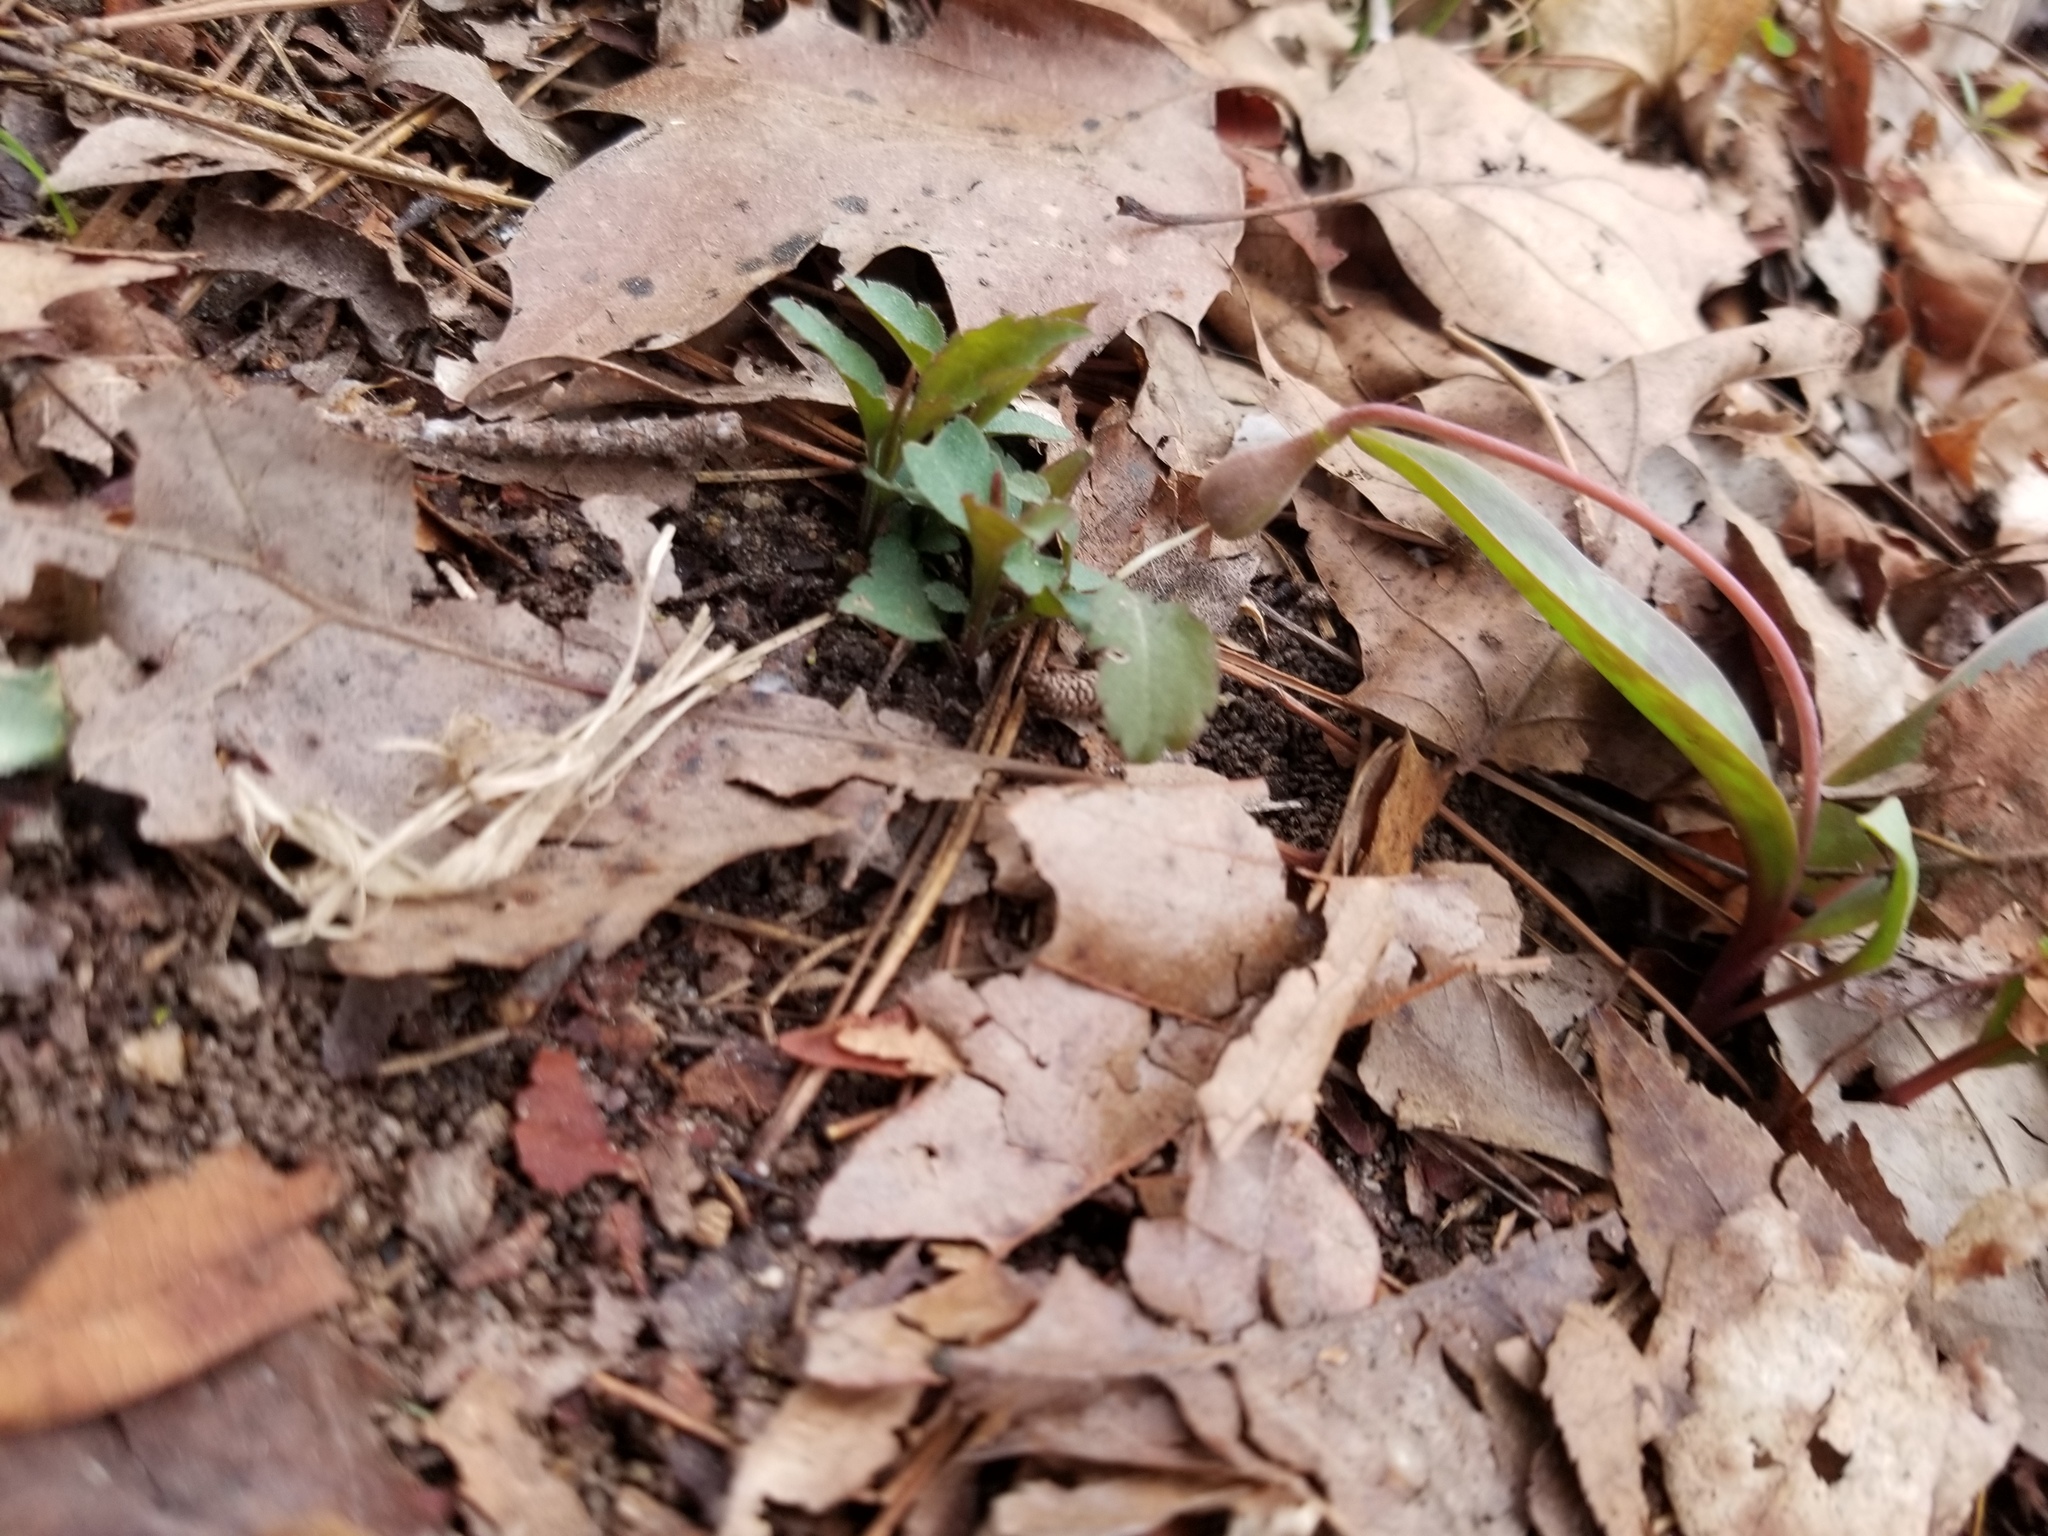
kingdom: Plantae
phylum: Tracheophyta
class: Liliopsida
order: Liliales
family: Liliaceae
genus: Erythronium
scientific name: Erythronium umbilicatum
